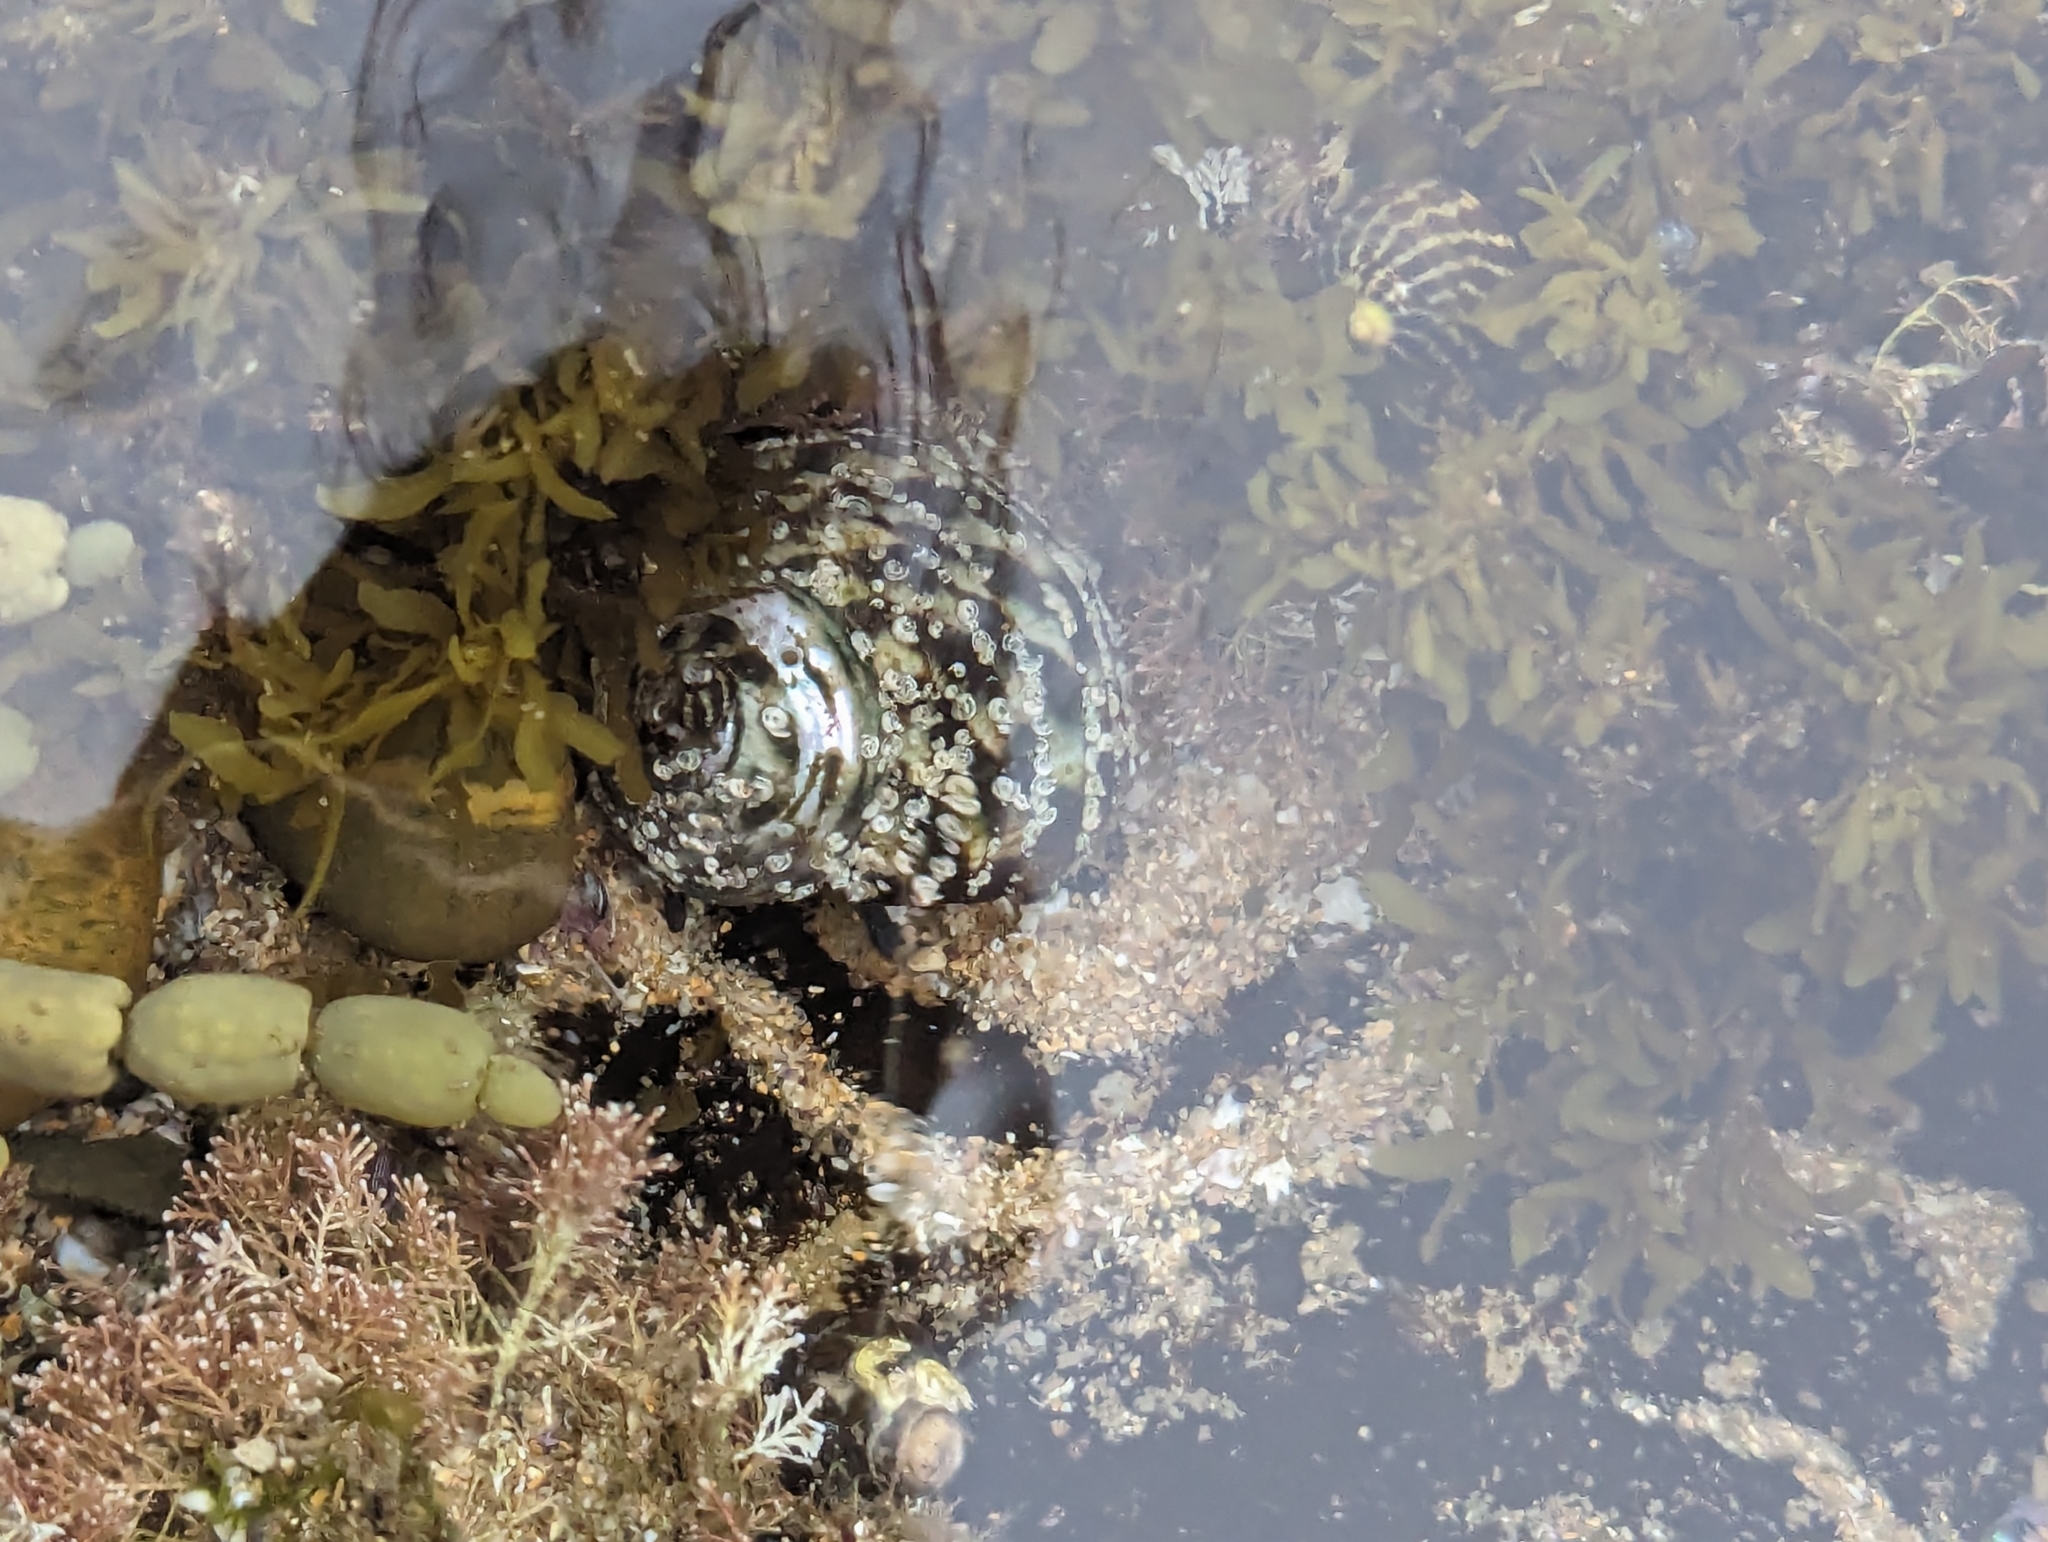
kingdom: Animalia
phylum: Mollusca
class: Gastropoda
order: Trochida
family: Turbinidae
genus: Lunella
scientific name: Lunella undulata
